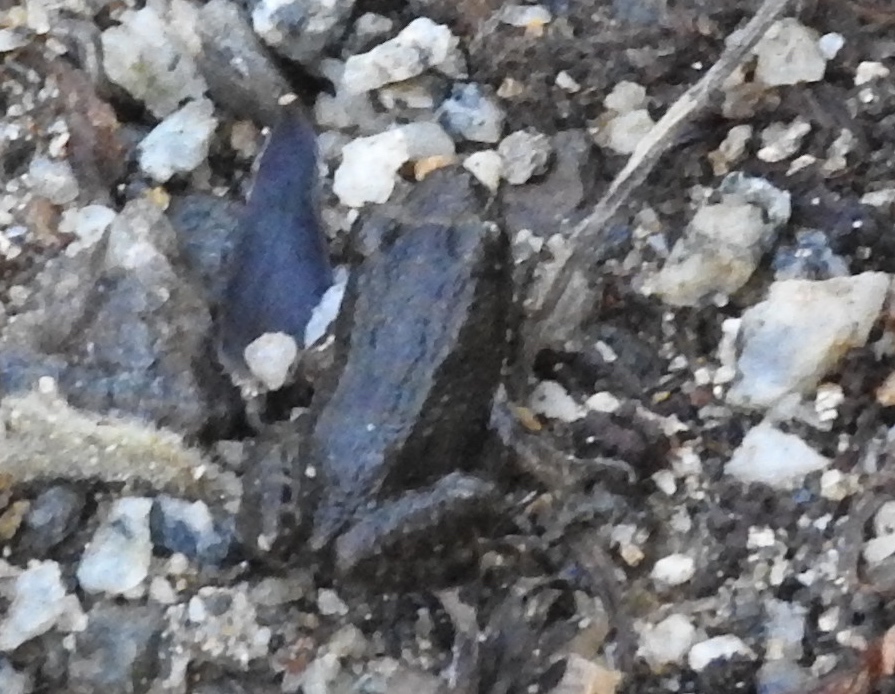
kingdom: Animalia
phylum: Chordata
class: Amphibia
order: Anura
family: Leptodactylidae
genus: Leptodactylus
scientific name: Leptodactylus melanonotus
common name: Fringe-toed foamfrog
